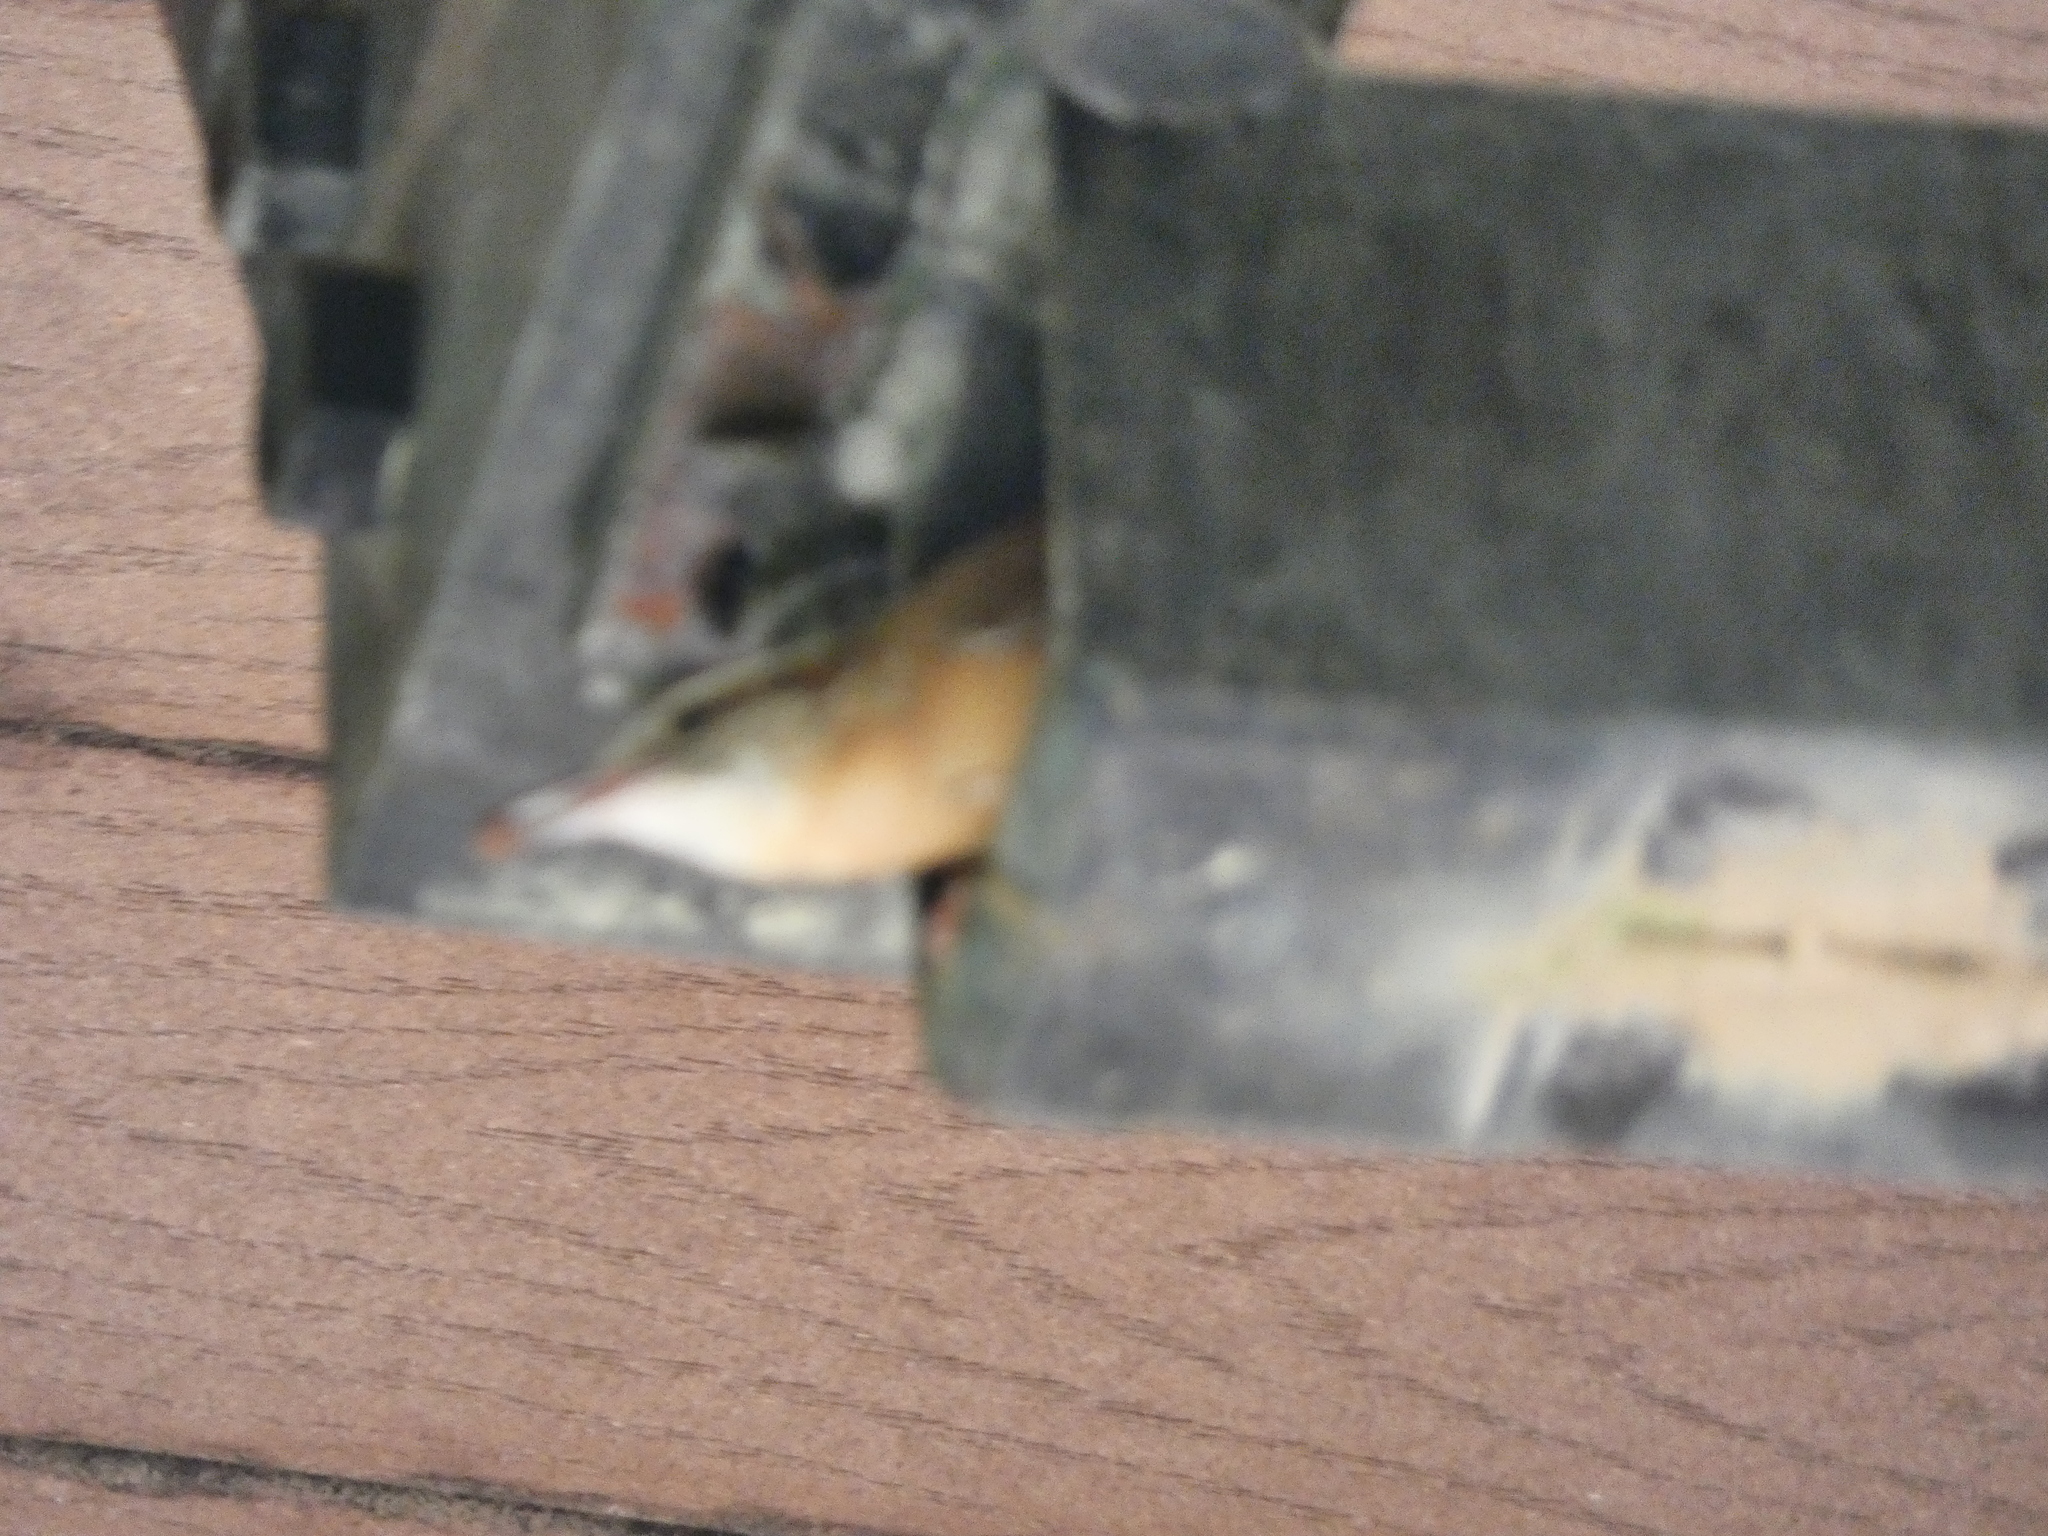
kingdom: Animalia
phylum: Chordata
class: Aves
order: Passeriformes
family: Troglodytidae
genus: Thryothorus
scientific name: Thryothorus ludovicianus
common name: Carolina wren
